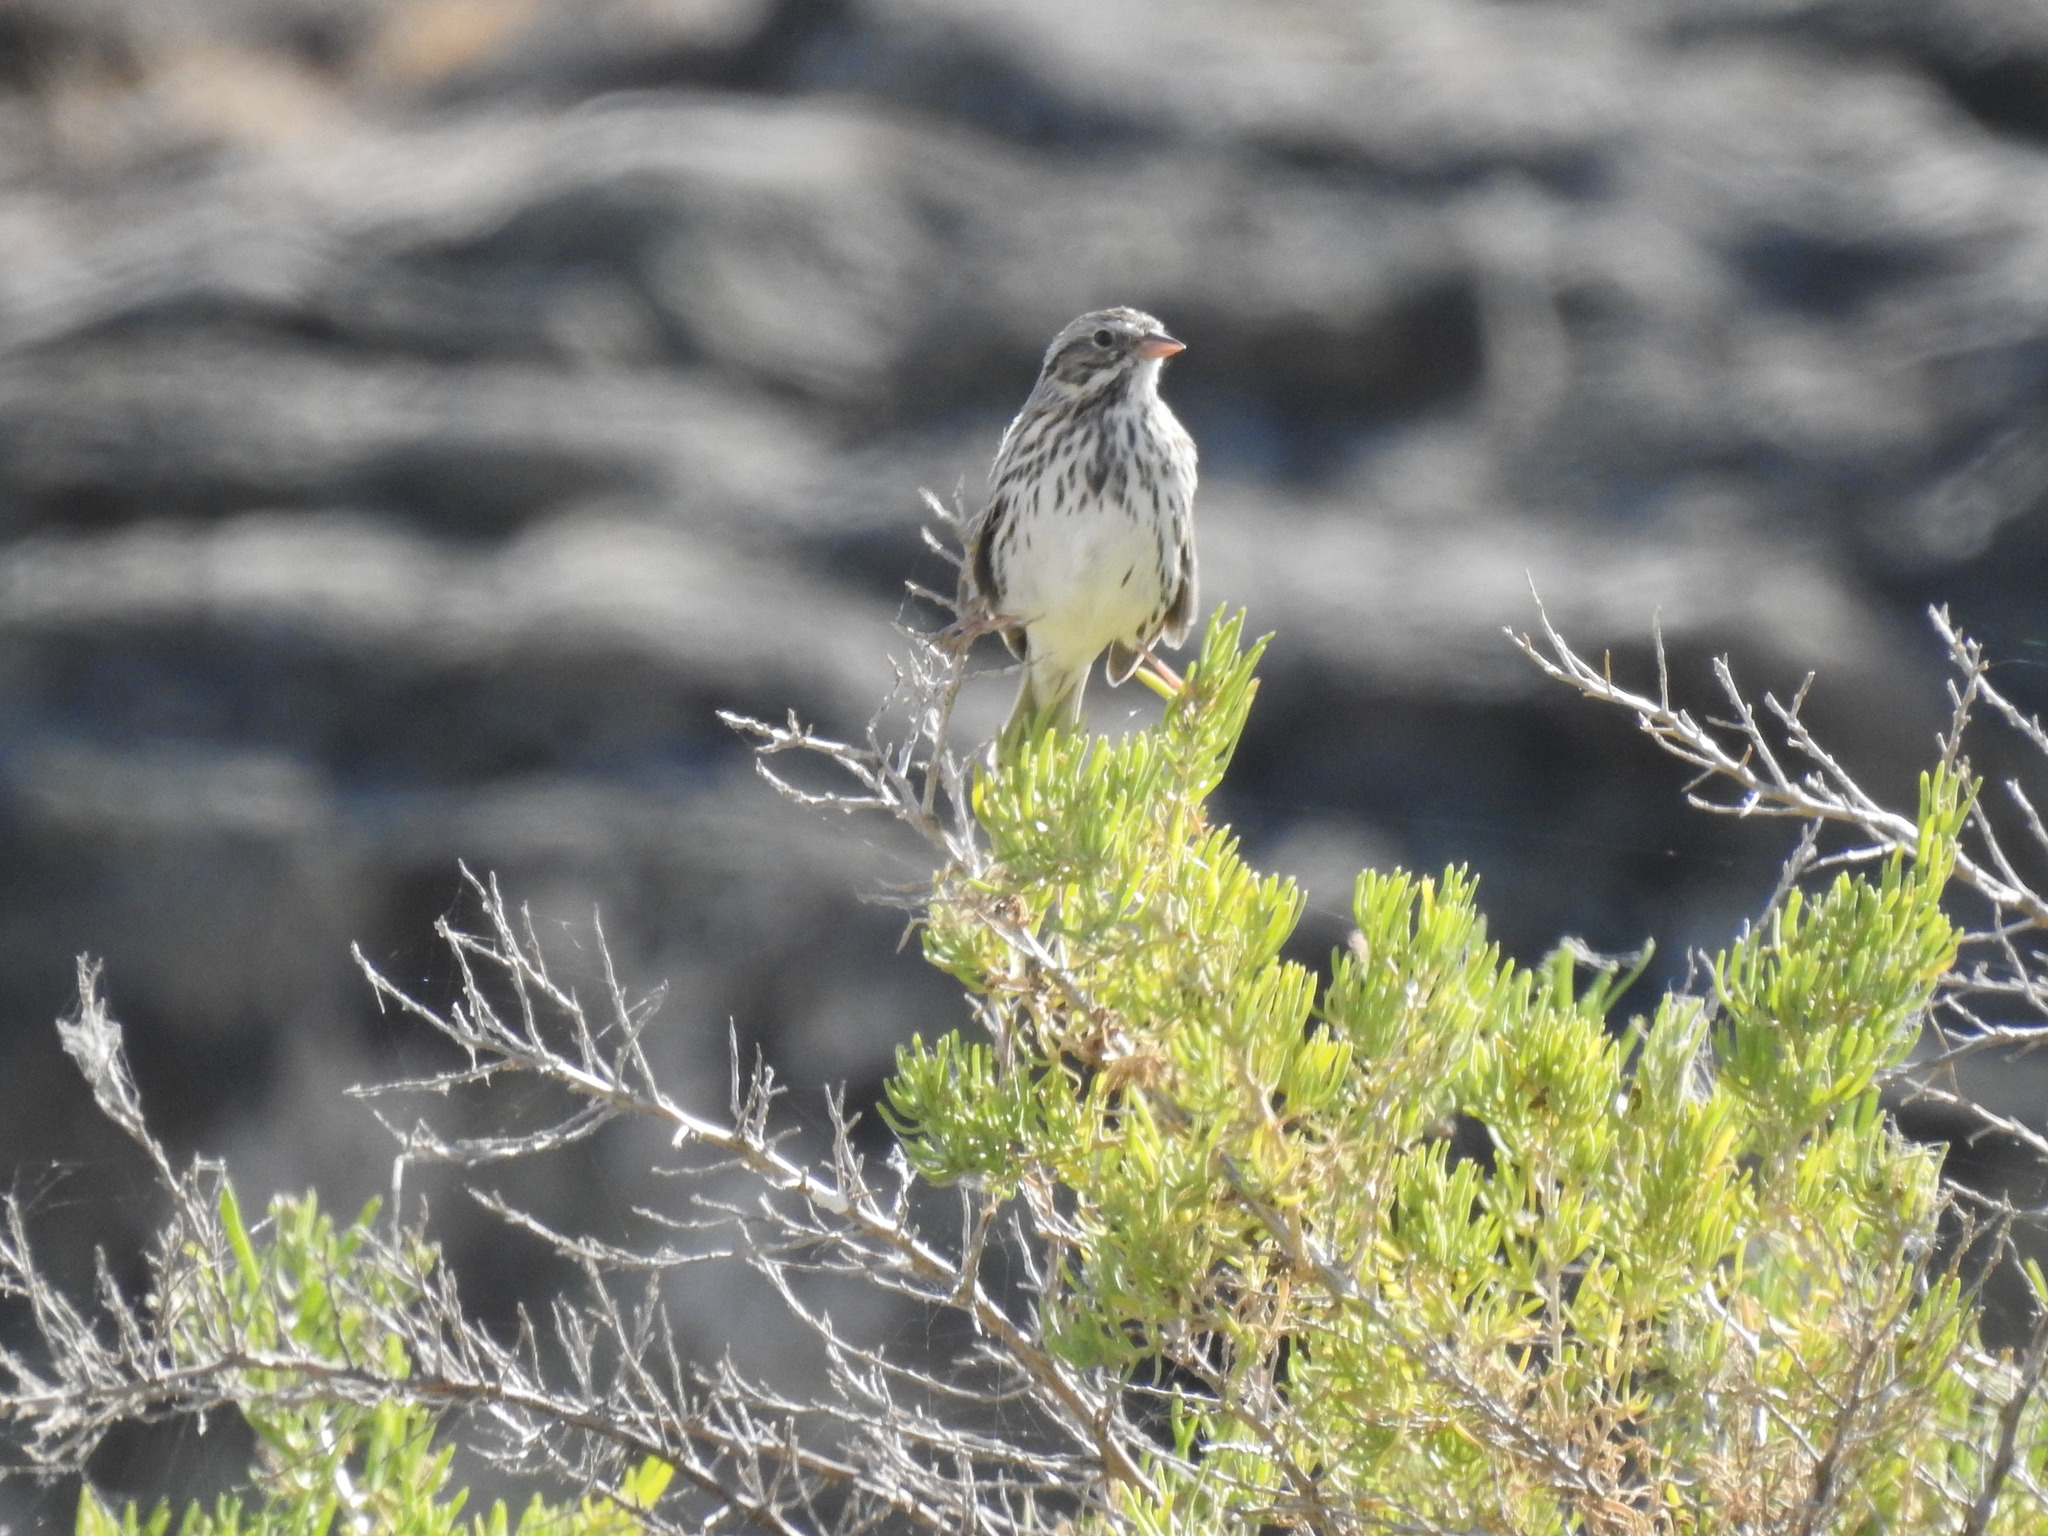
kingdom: Animalia
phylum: Chordata
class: Aves
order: Passeriformes
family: Passerellidae
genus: Passerculus
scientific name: Passerculus sandwichensis
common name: Savannah sparrow
